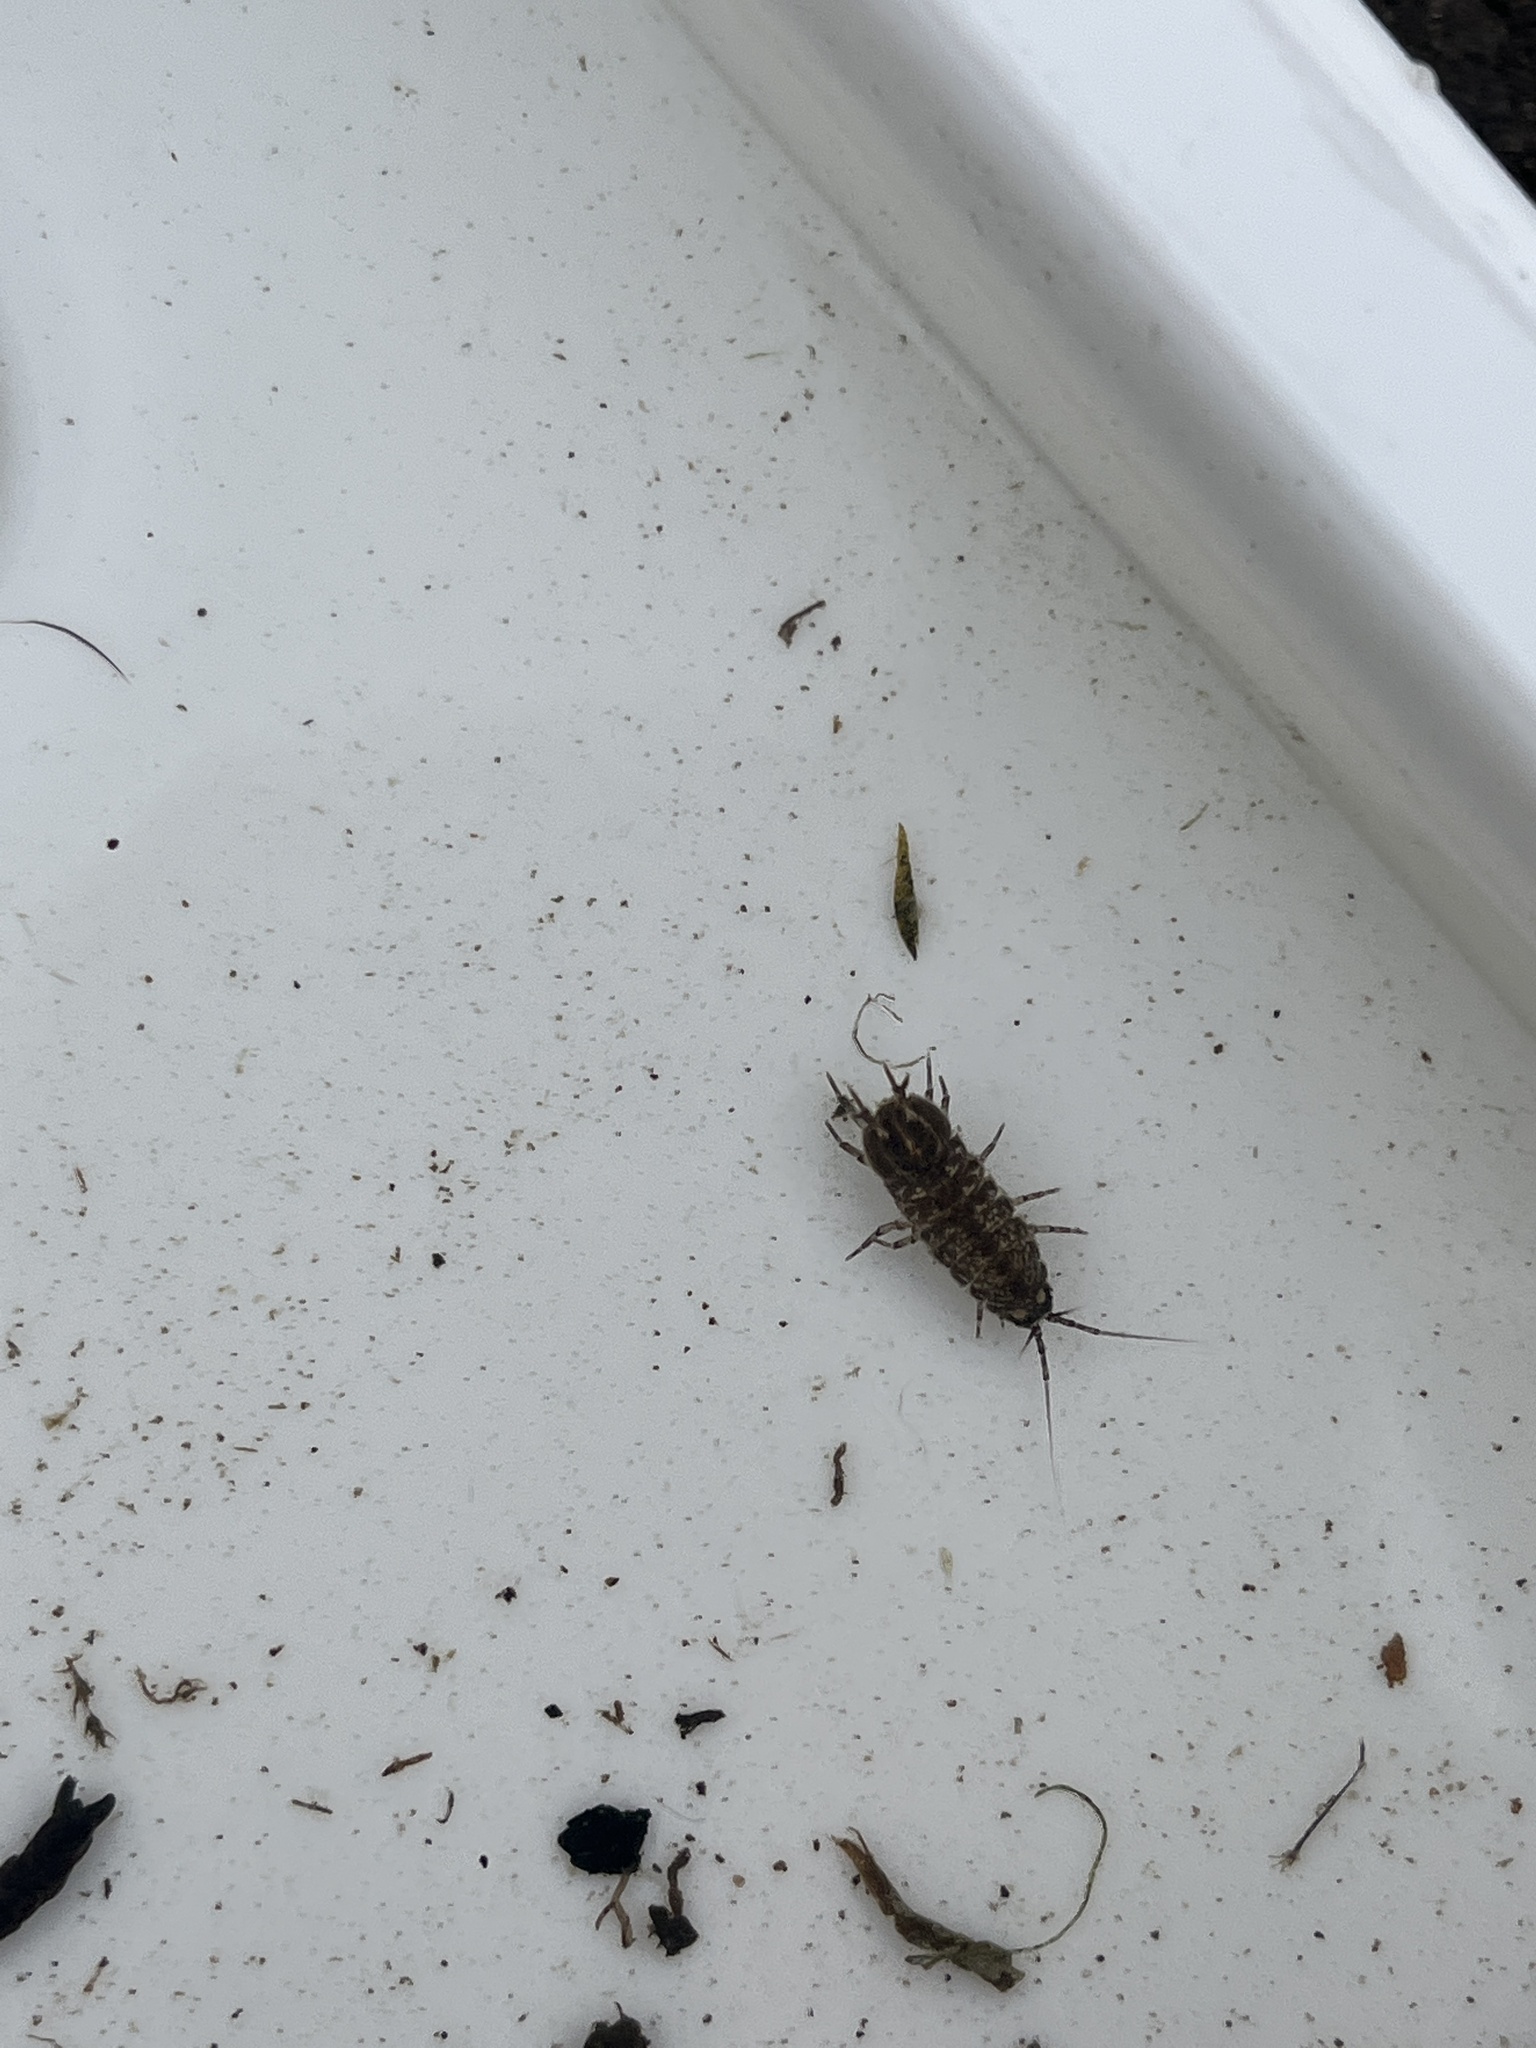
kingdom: Animalia
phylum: Arthropoda
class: Malacostraca
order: Isopoda
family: Asellidae
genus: Asellus
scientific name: Asellus aquaticus
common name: Water hog lice/slaters
